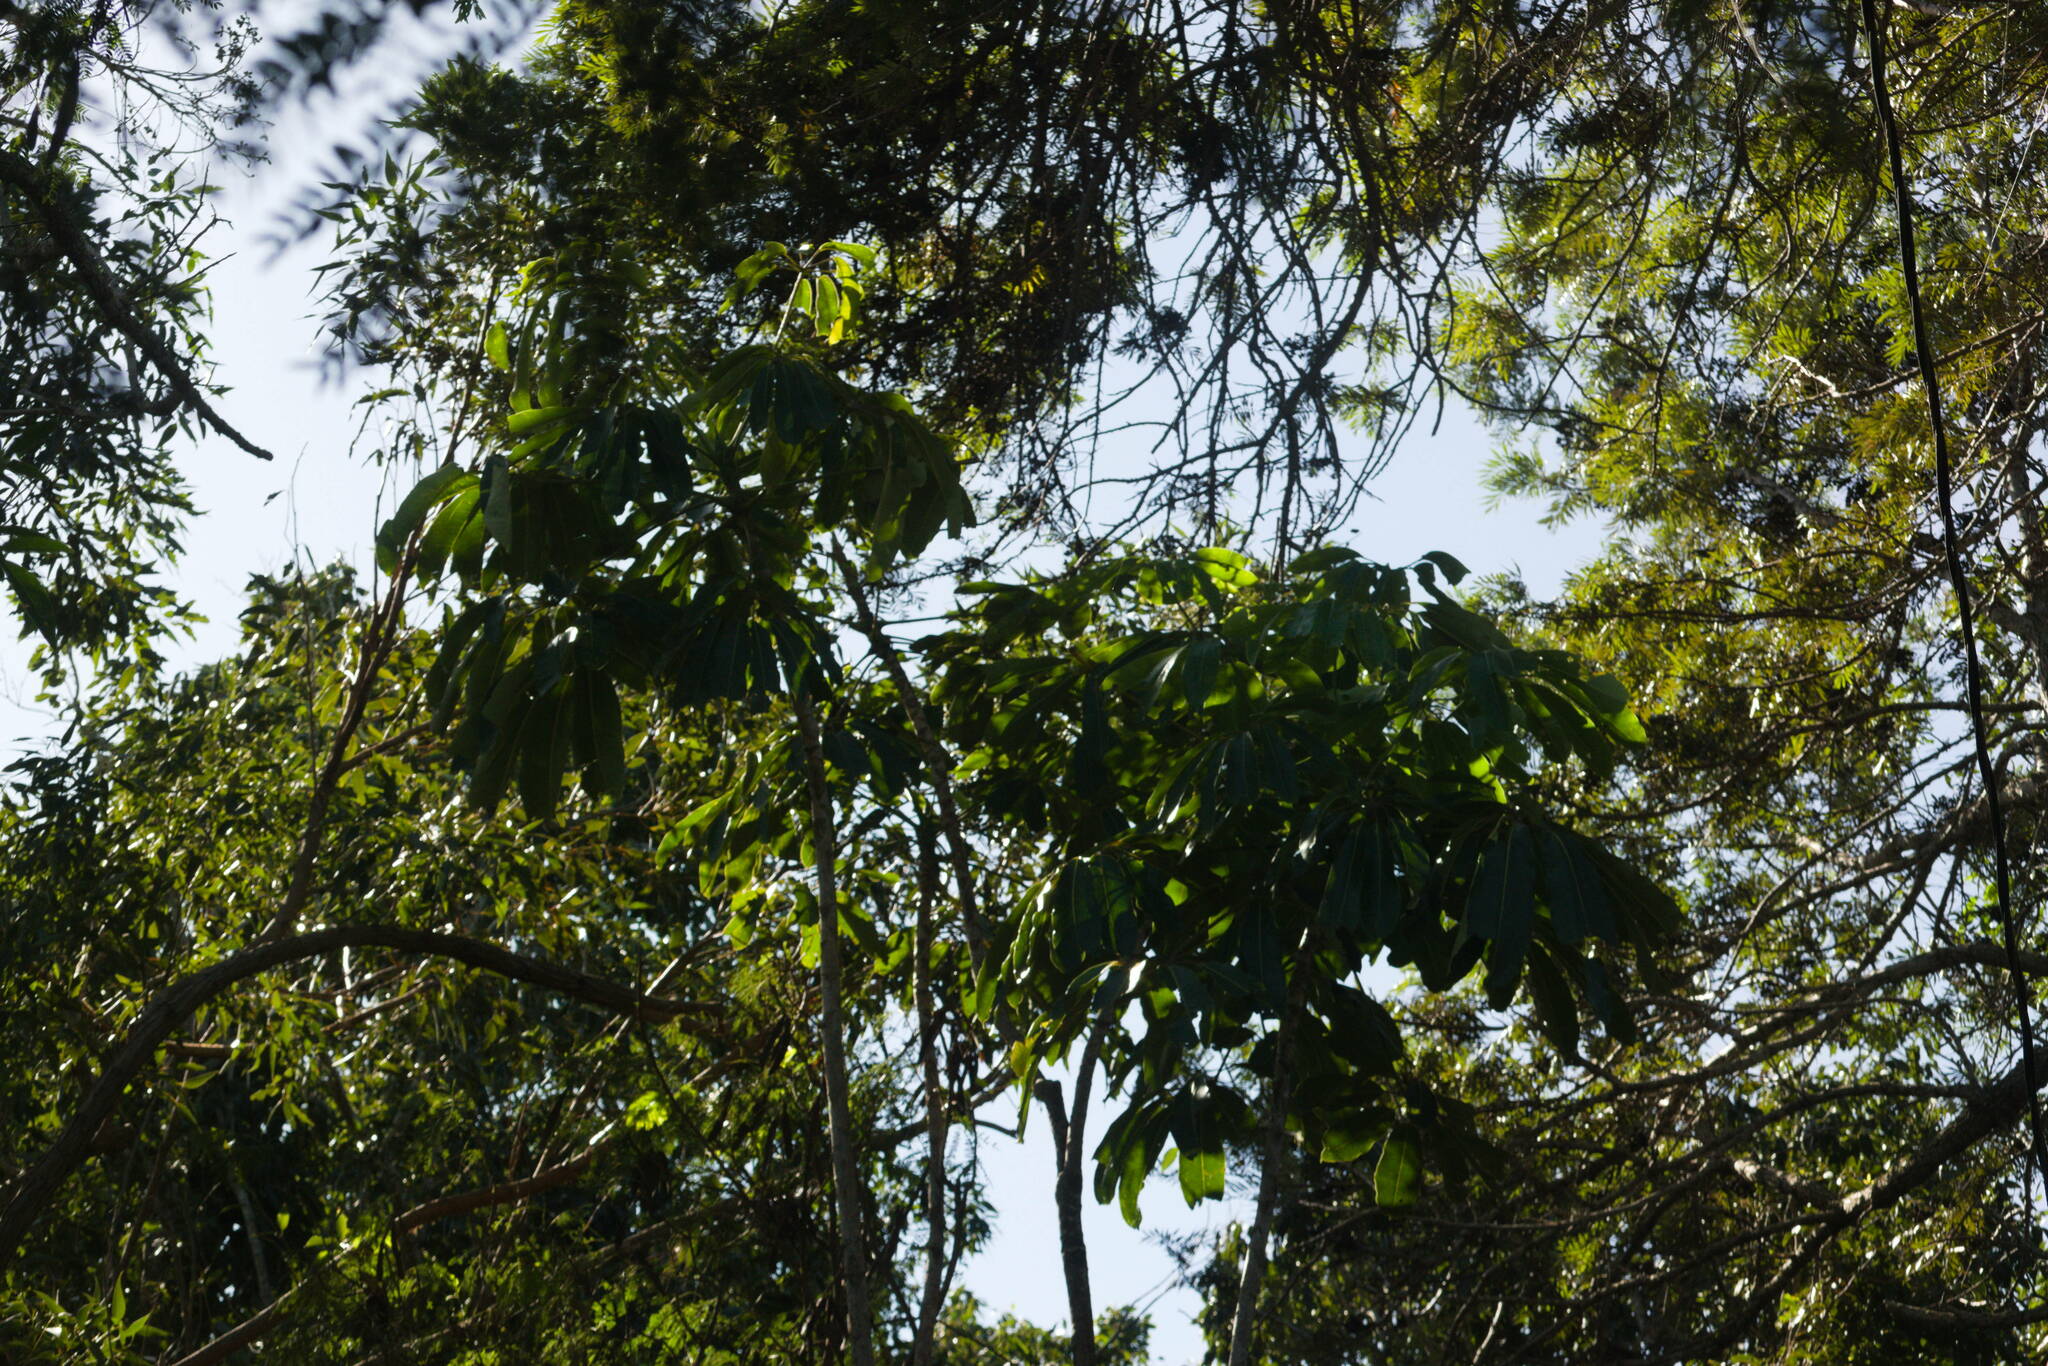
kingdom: Plantae
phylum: Tracheophyta
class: Magnoliopsida
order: Apiales
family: Araliaceae
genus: Heptapleurum
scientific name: Heptapleurum actinophyllum
